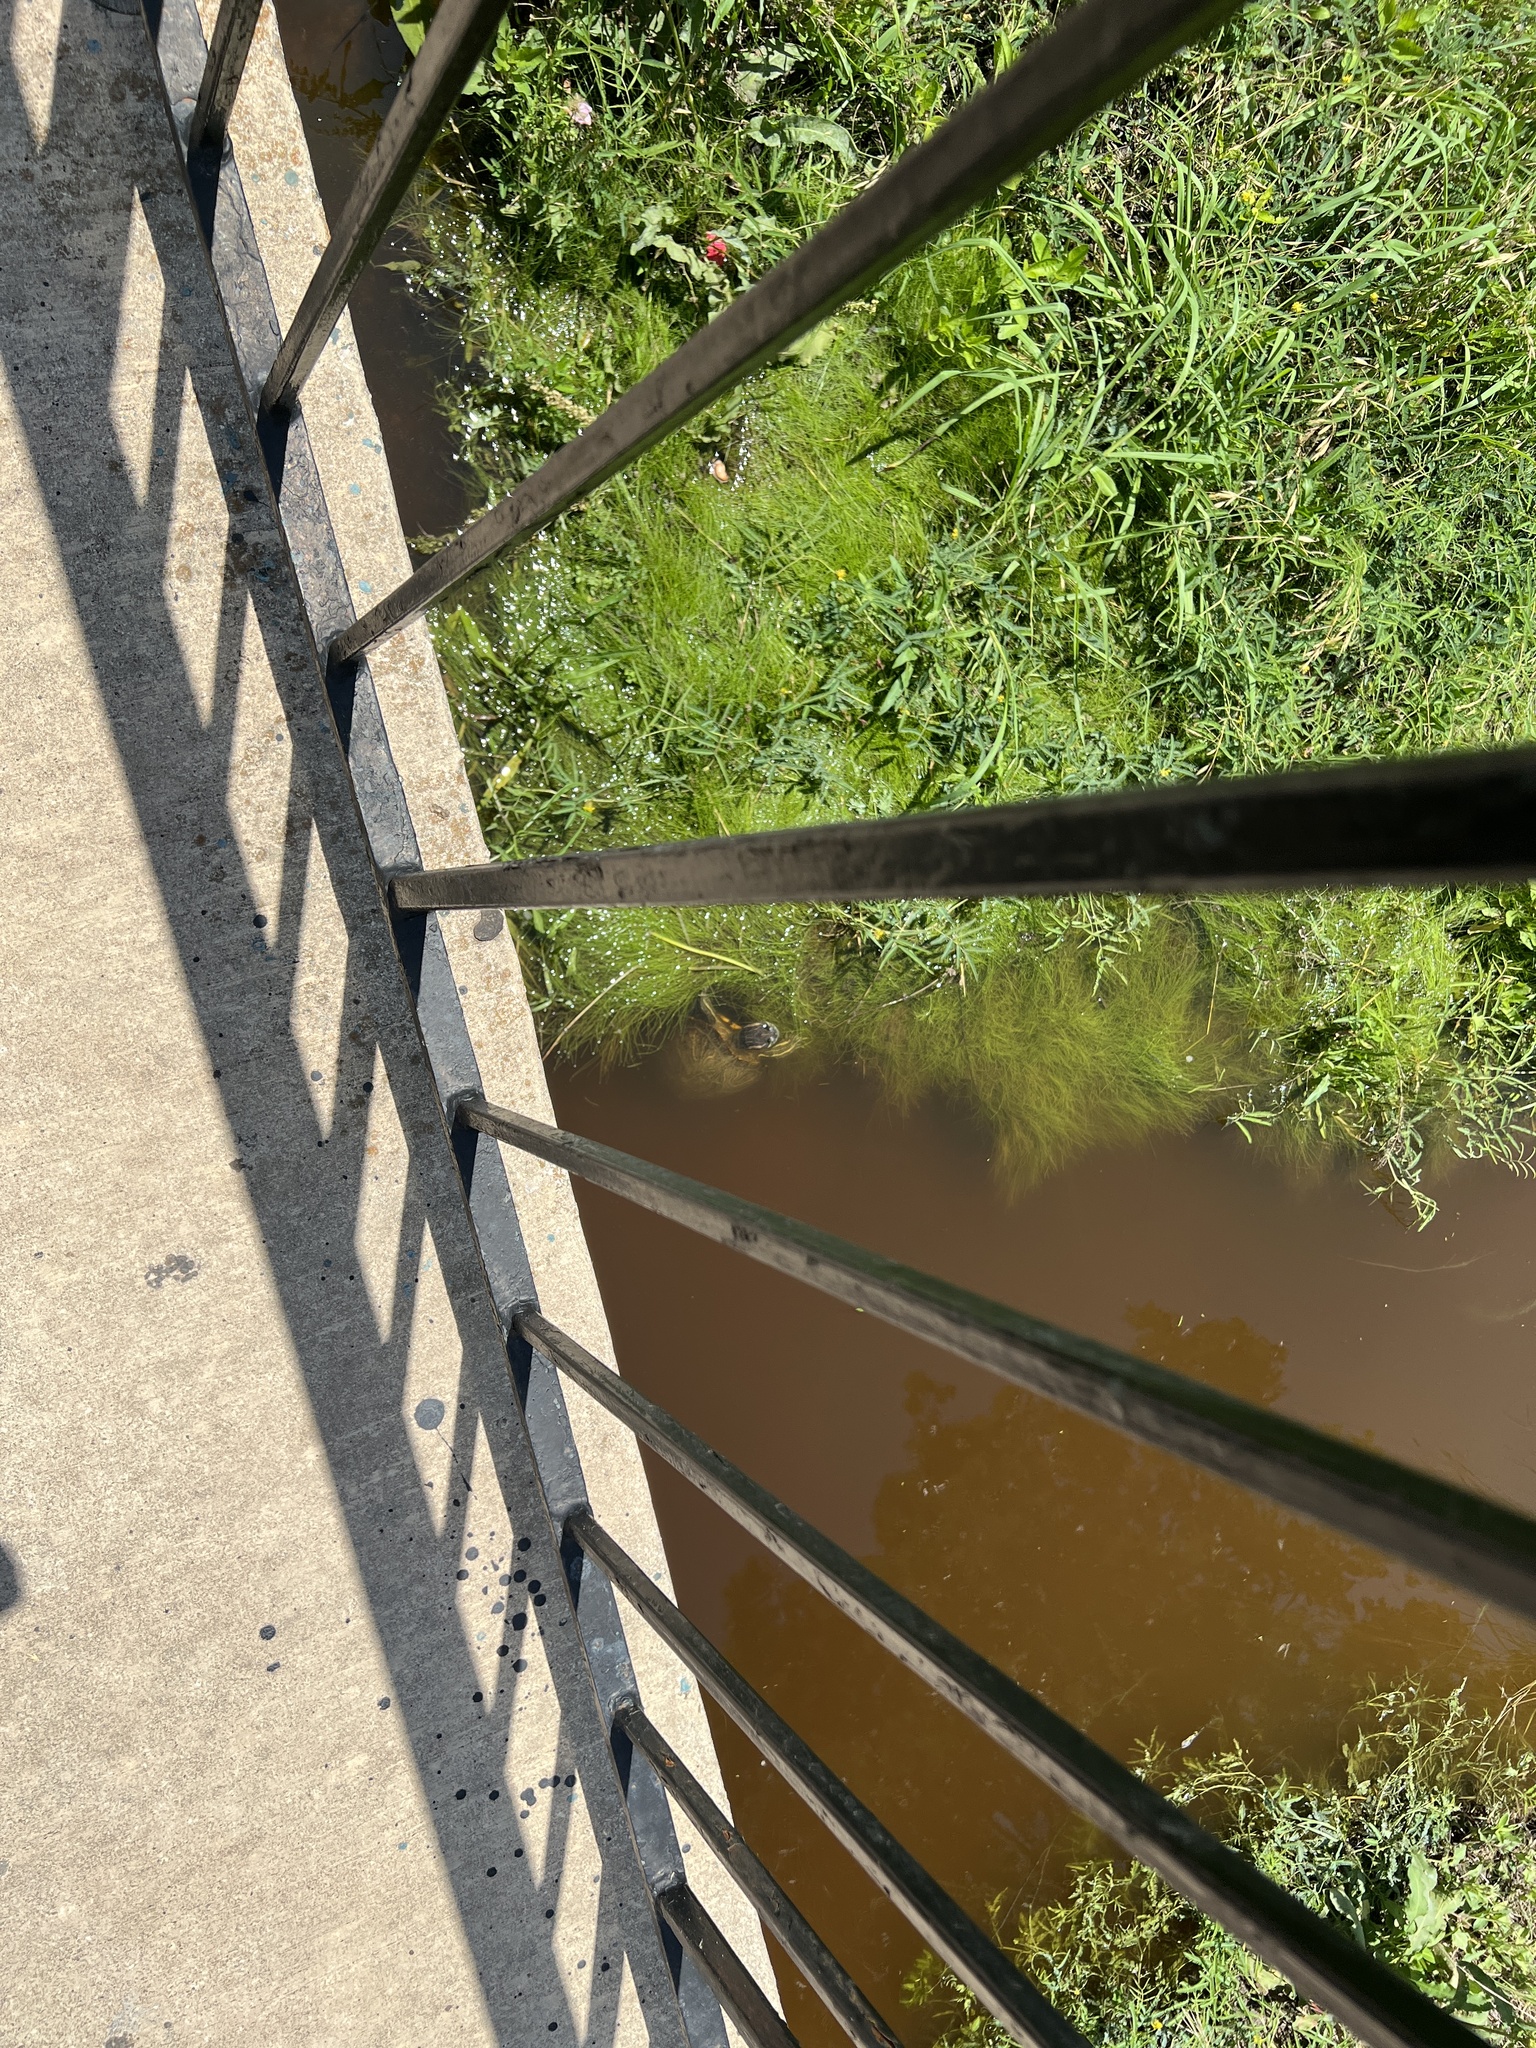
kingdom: Animalia
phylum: Chordata
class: Testudines
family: Emydidae
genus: Trachemys
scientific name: Trachemys scripta
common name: Slider
